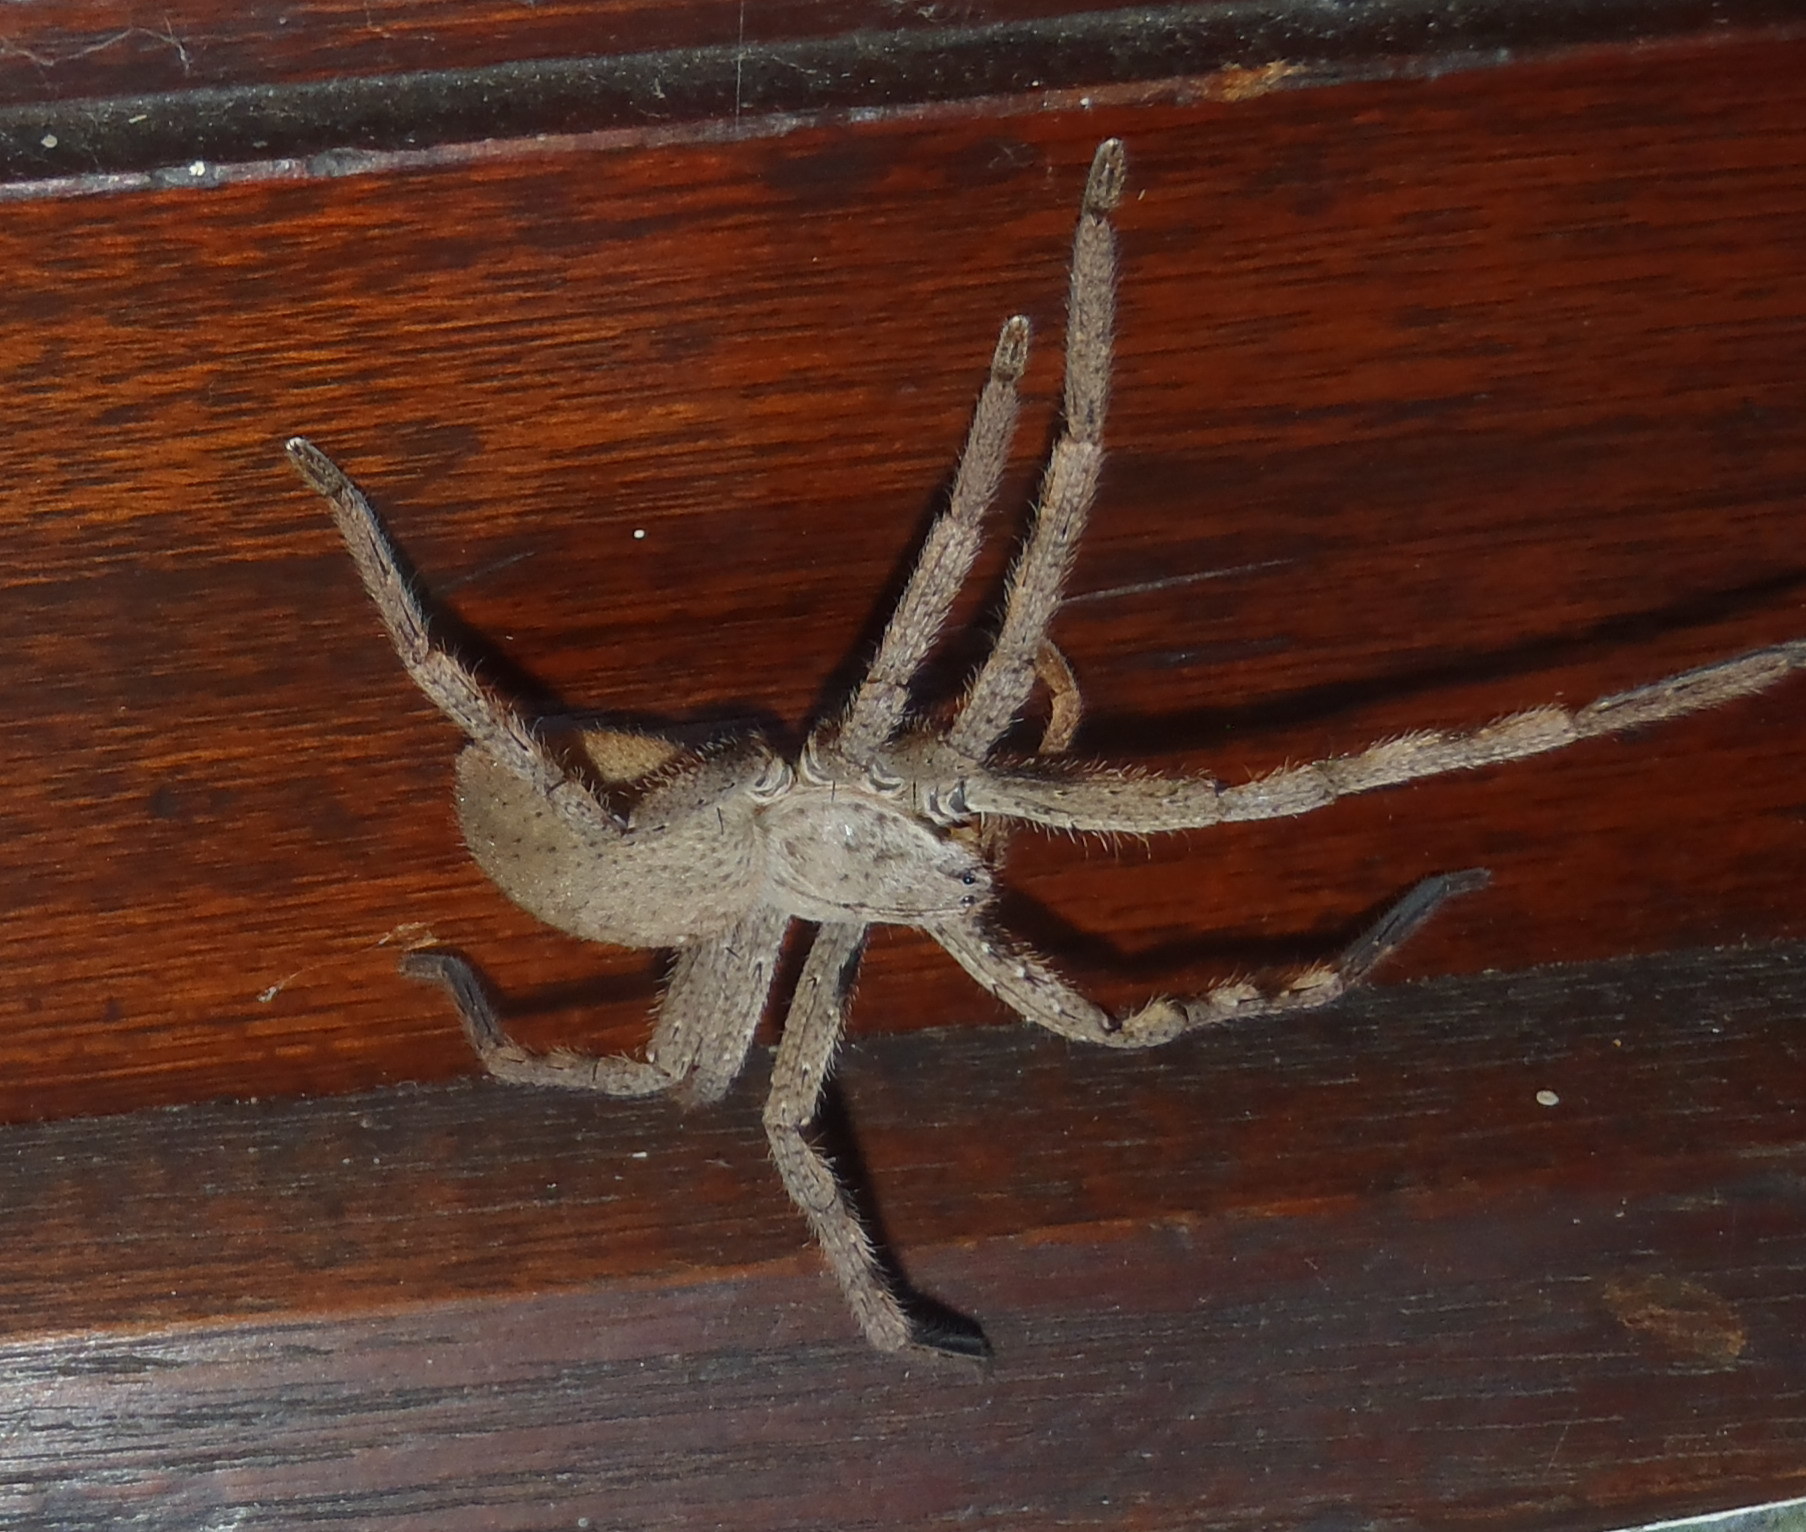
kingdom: Animalia
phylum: Arthropoda
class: Arachnida
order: Araneae
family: Sparassidae
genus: Palystes
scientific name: Palystes superciliosus
